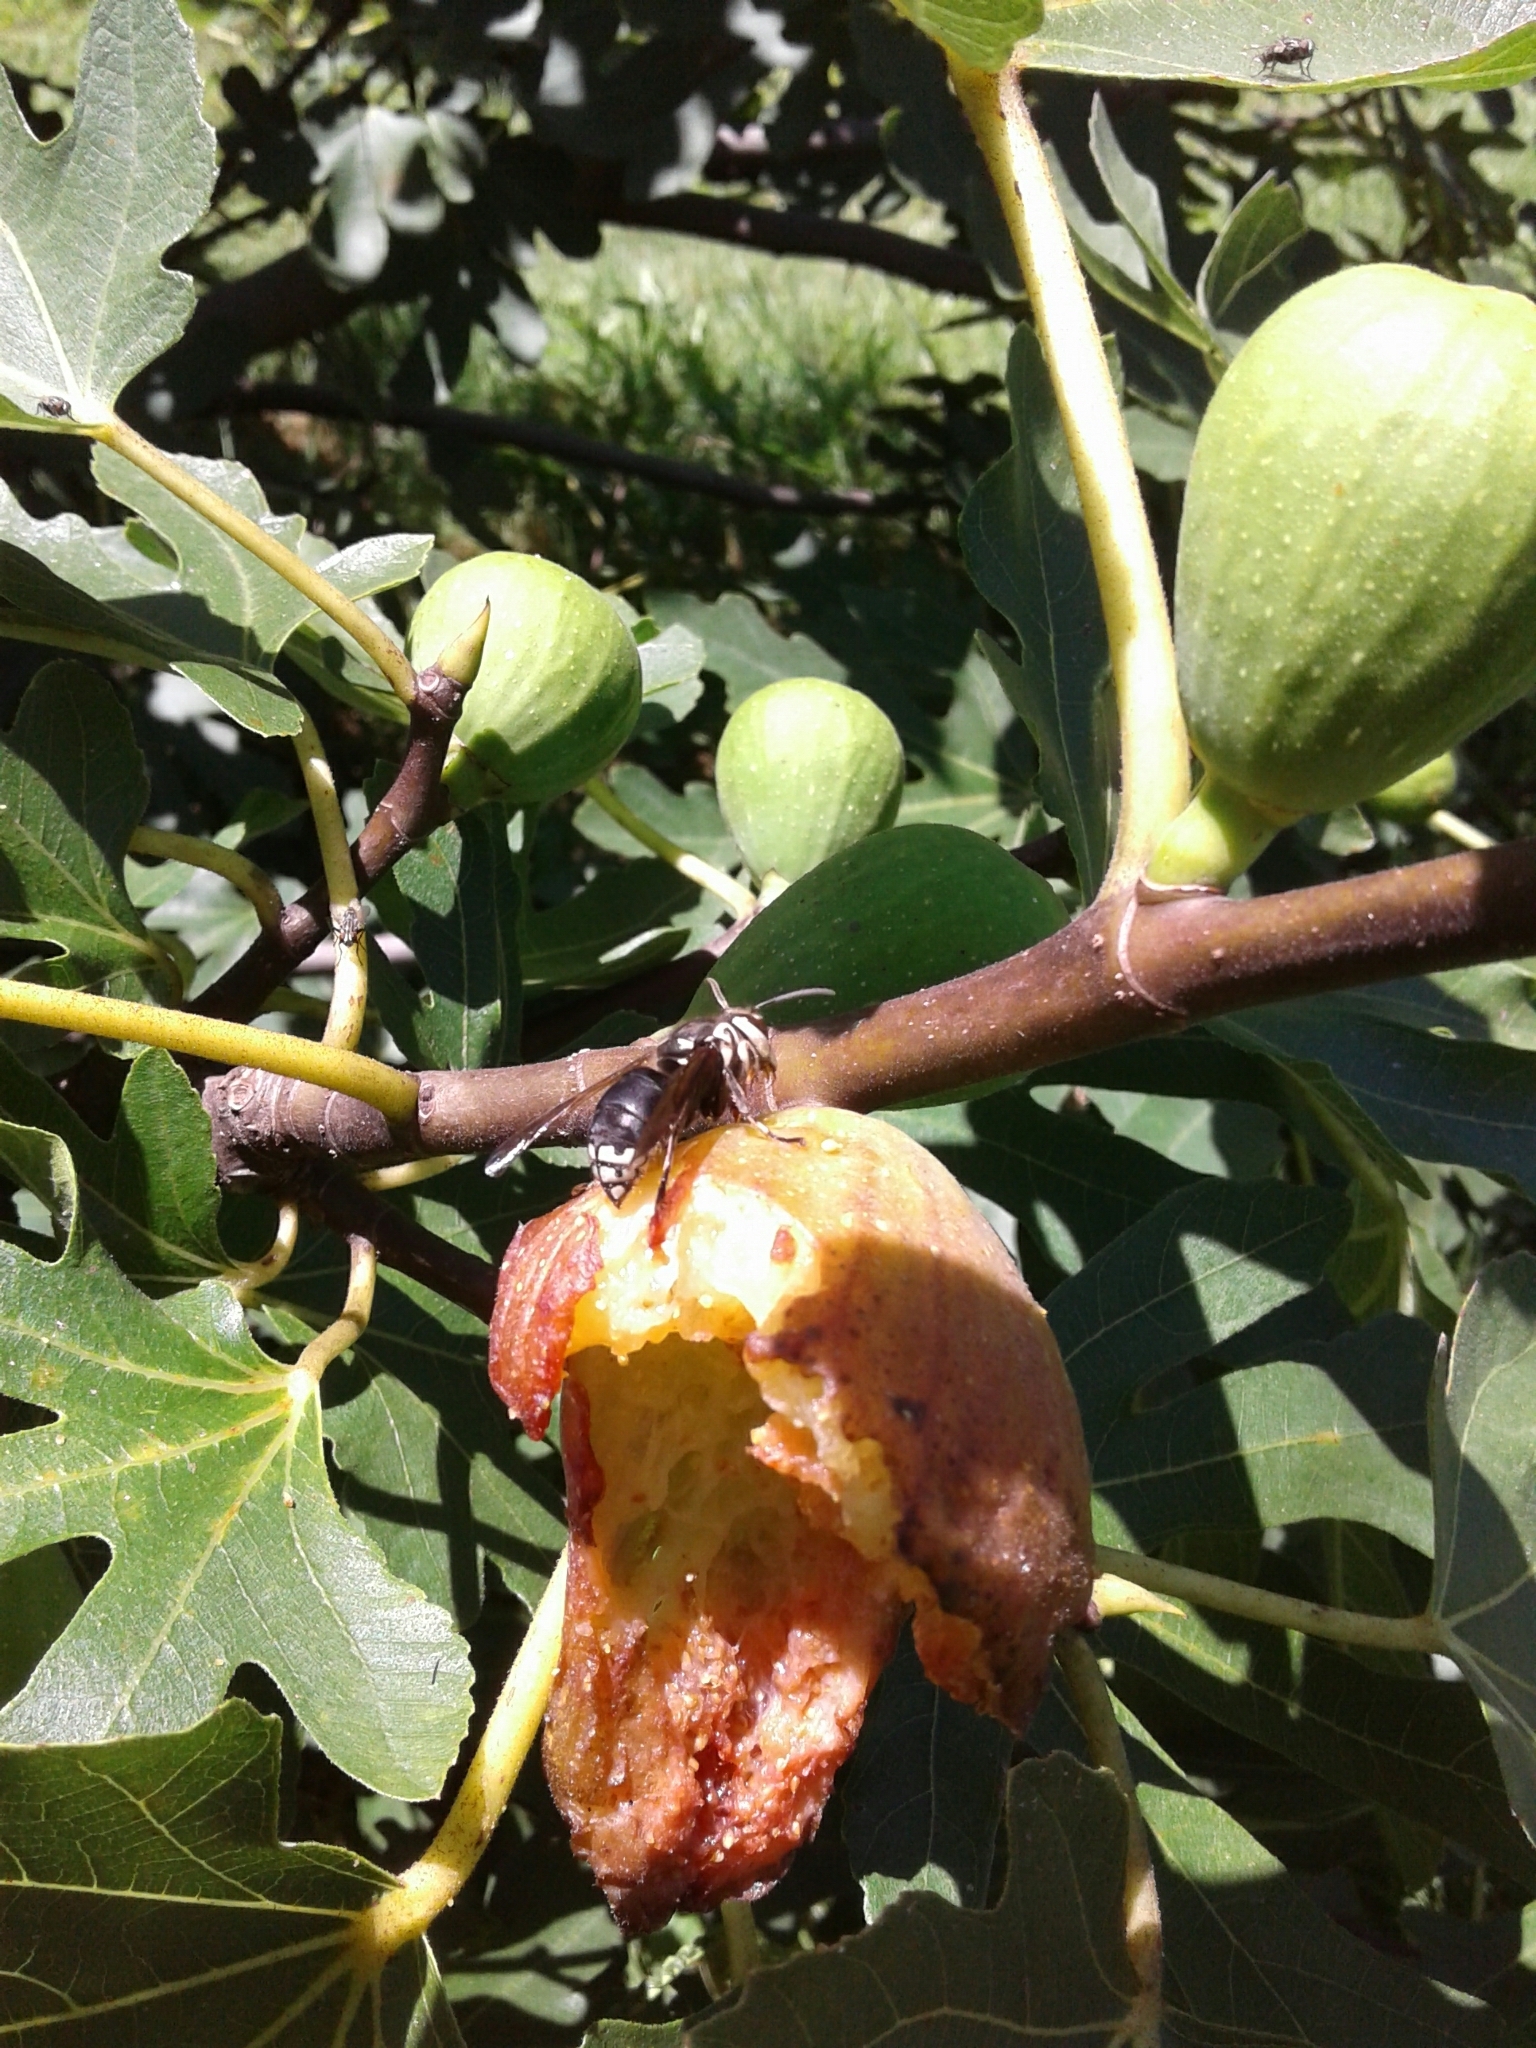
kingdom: Animalia
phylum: Arthropoda
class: Insecta
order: Hymenoptera
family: Vespidae
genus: Dolichovespula
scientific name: Dolichovespula maculata
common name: Bald-faced hornet
